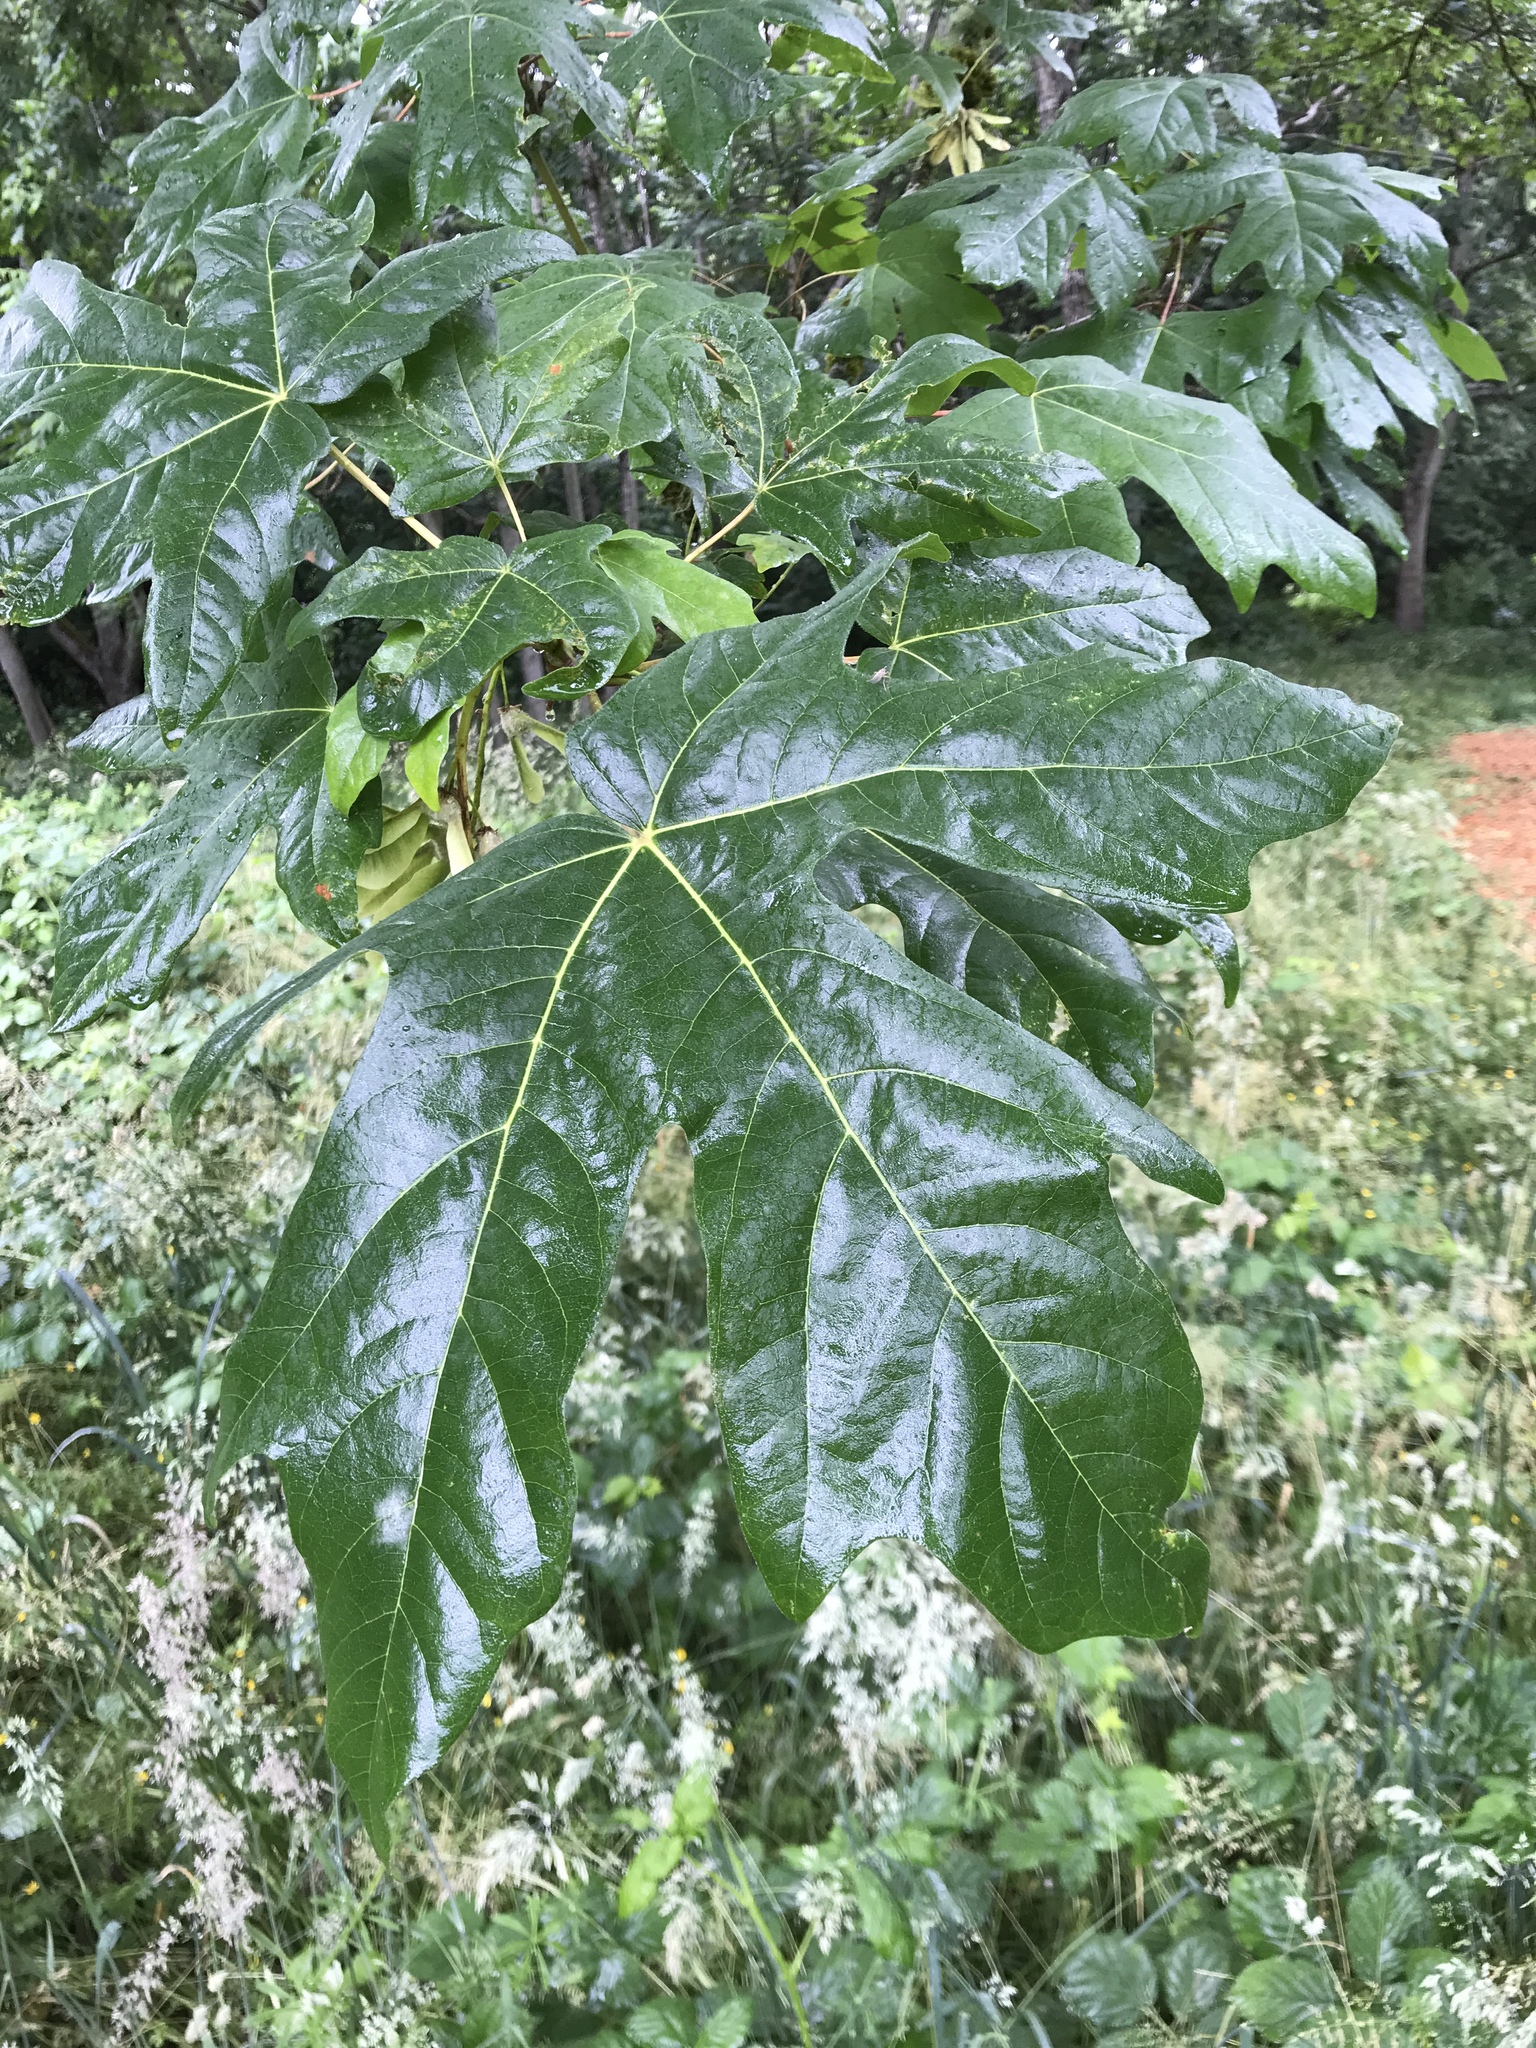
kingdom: Plantae
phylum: Tracheophyta
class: Magnoliopsida
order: Sapindales
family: Sapindaceae
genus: Acer
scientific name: Acer macrophyllum
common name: Oregon maple
